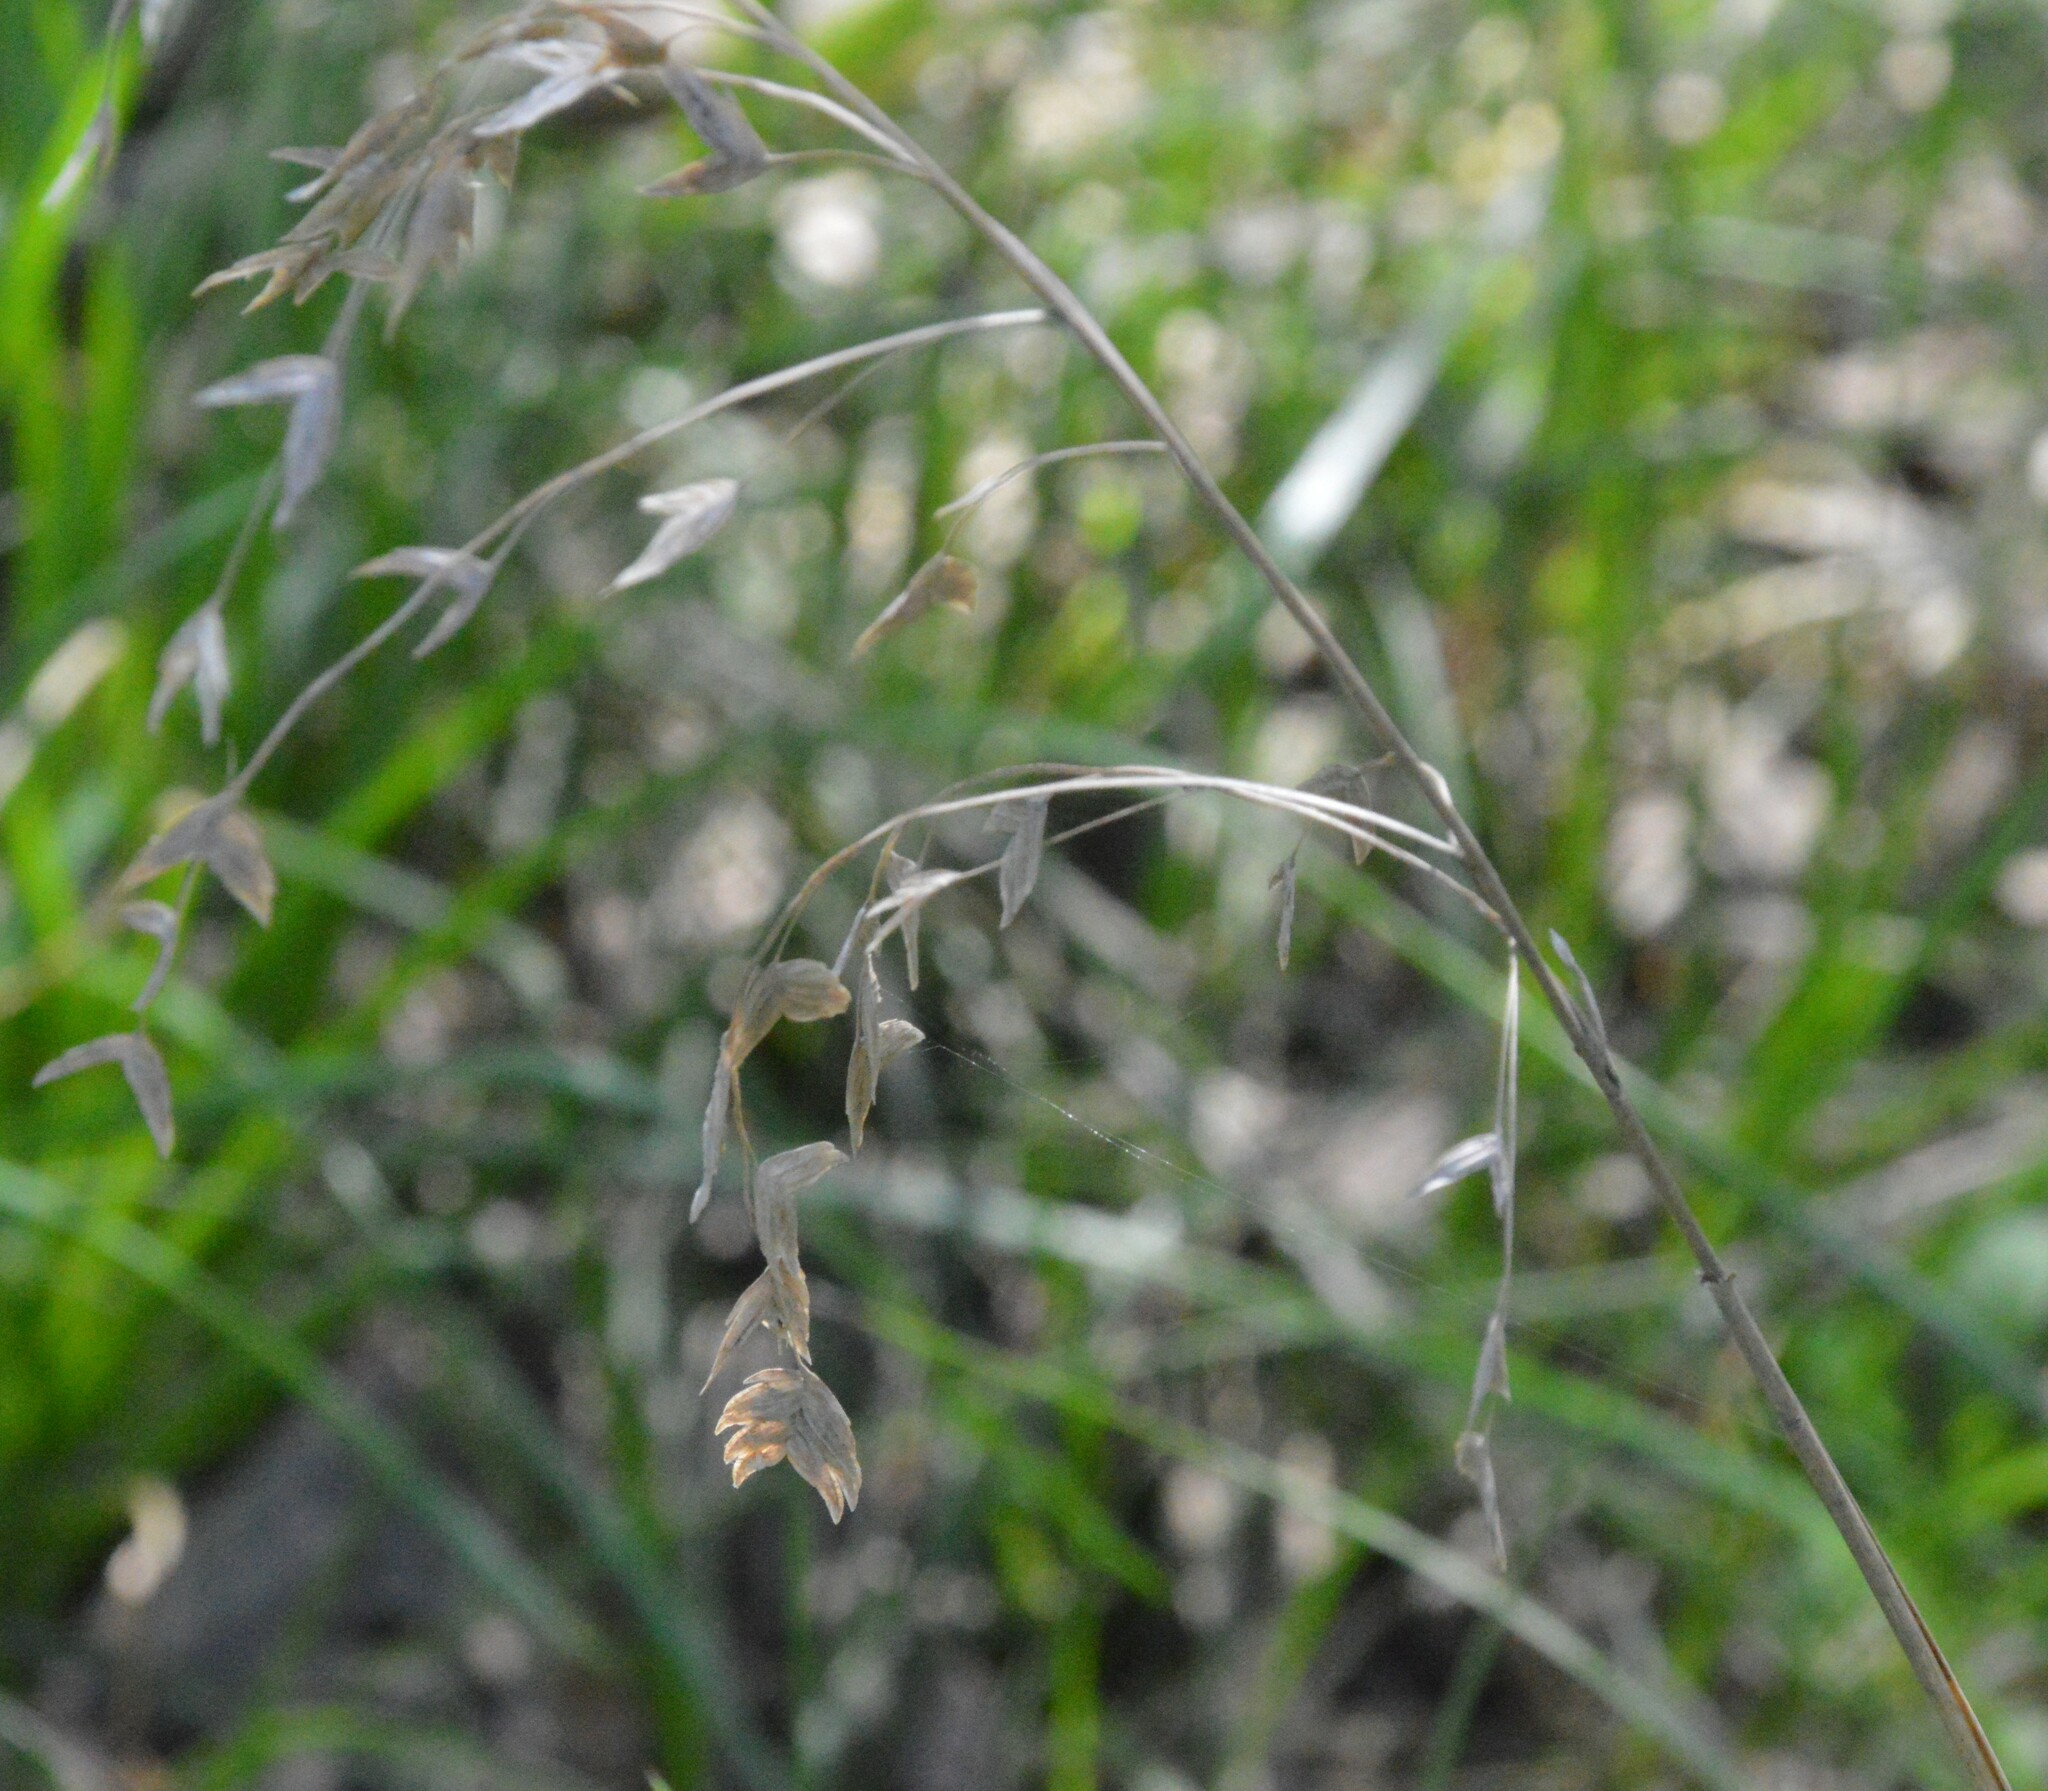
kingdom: Plantae
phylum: Tracheophyta
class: Liliopsida
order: Poales
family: Poaceae
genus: Chasmanthium
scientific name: Chasmanthium latifolium
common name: Broad-leaved chasmanthium
